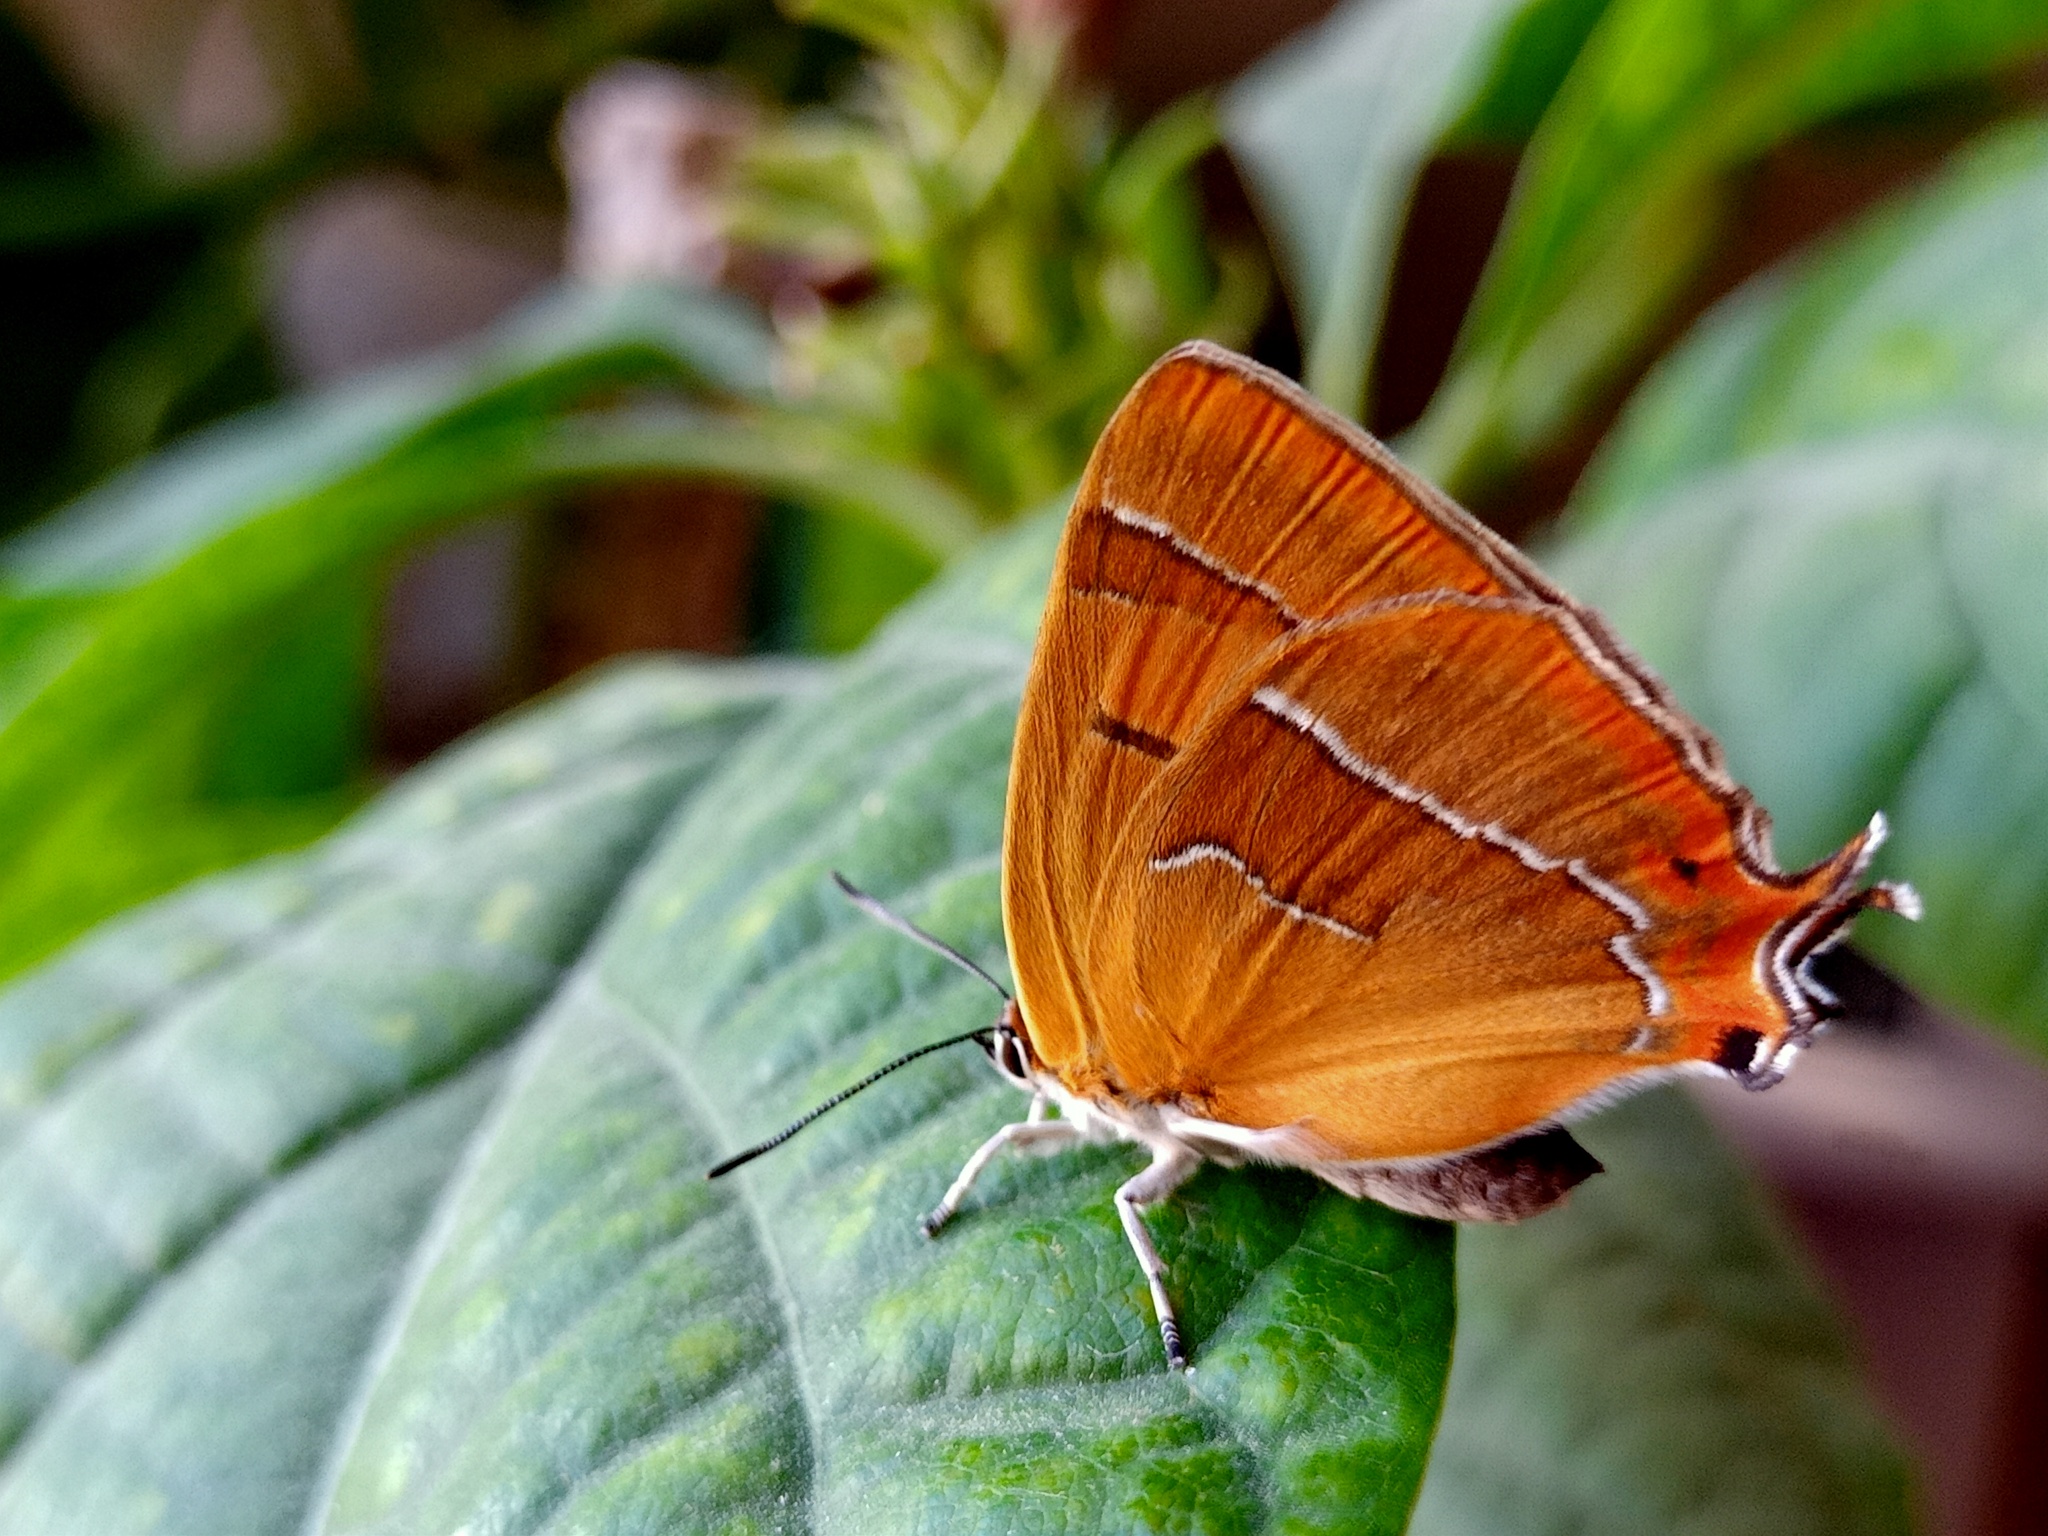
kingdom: Animalia
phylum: Arthropoda
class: Insecta
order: Lepidoptera
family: Lycaenidae
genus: Thecla
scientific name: Thecla betulae
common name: Brown hairstreak
